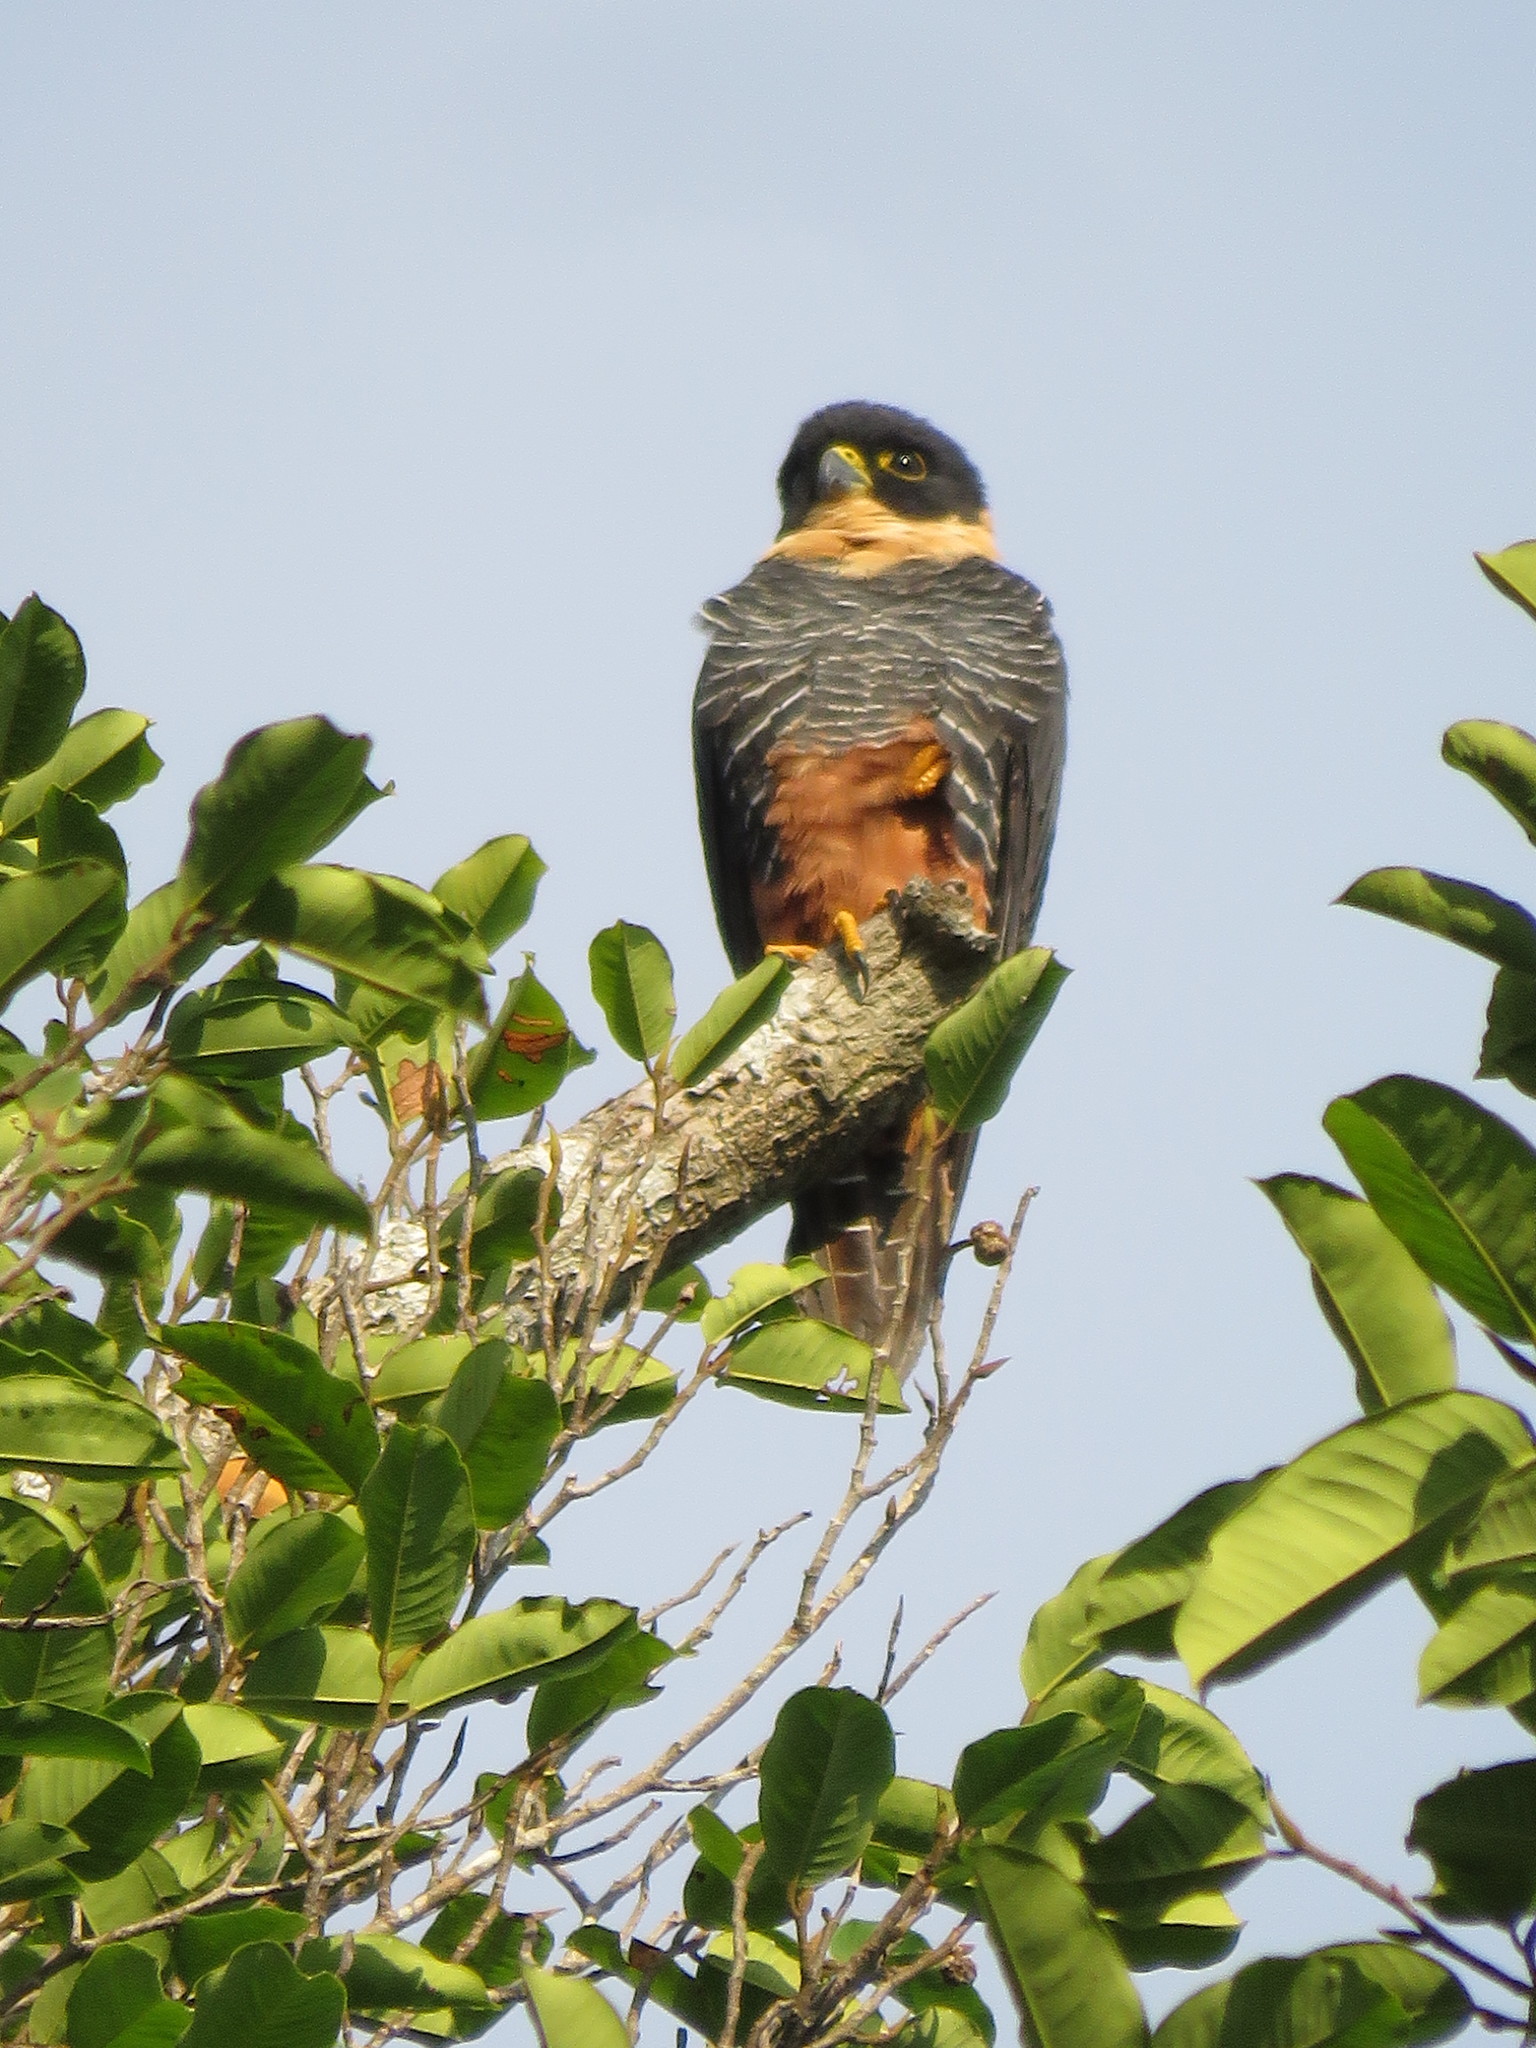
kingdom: Animalia
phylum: Chordata
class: Aves
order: Falconiformes
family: Falconidae
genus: Falco
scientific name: Falco rufigularis
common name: Bat falcon
